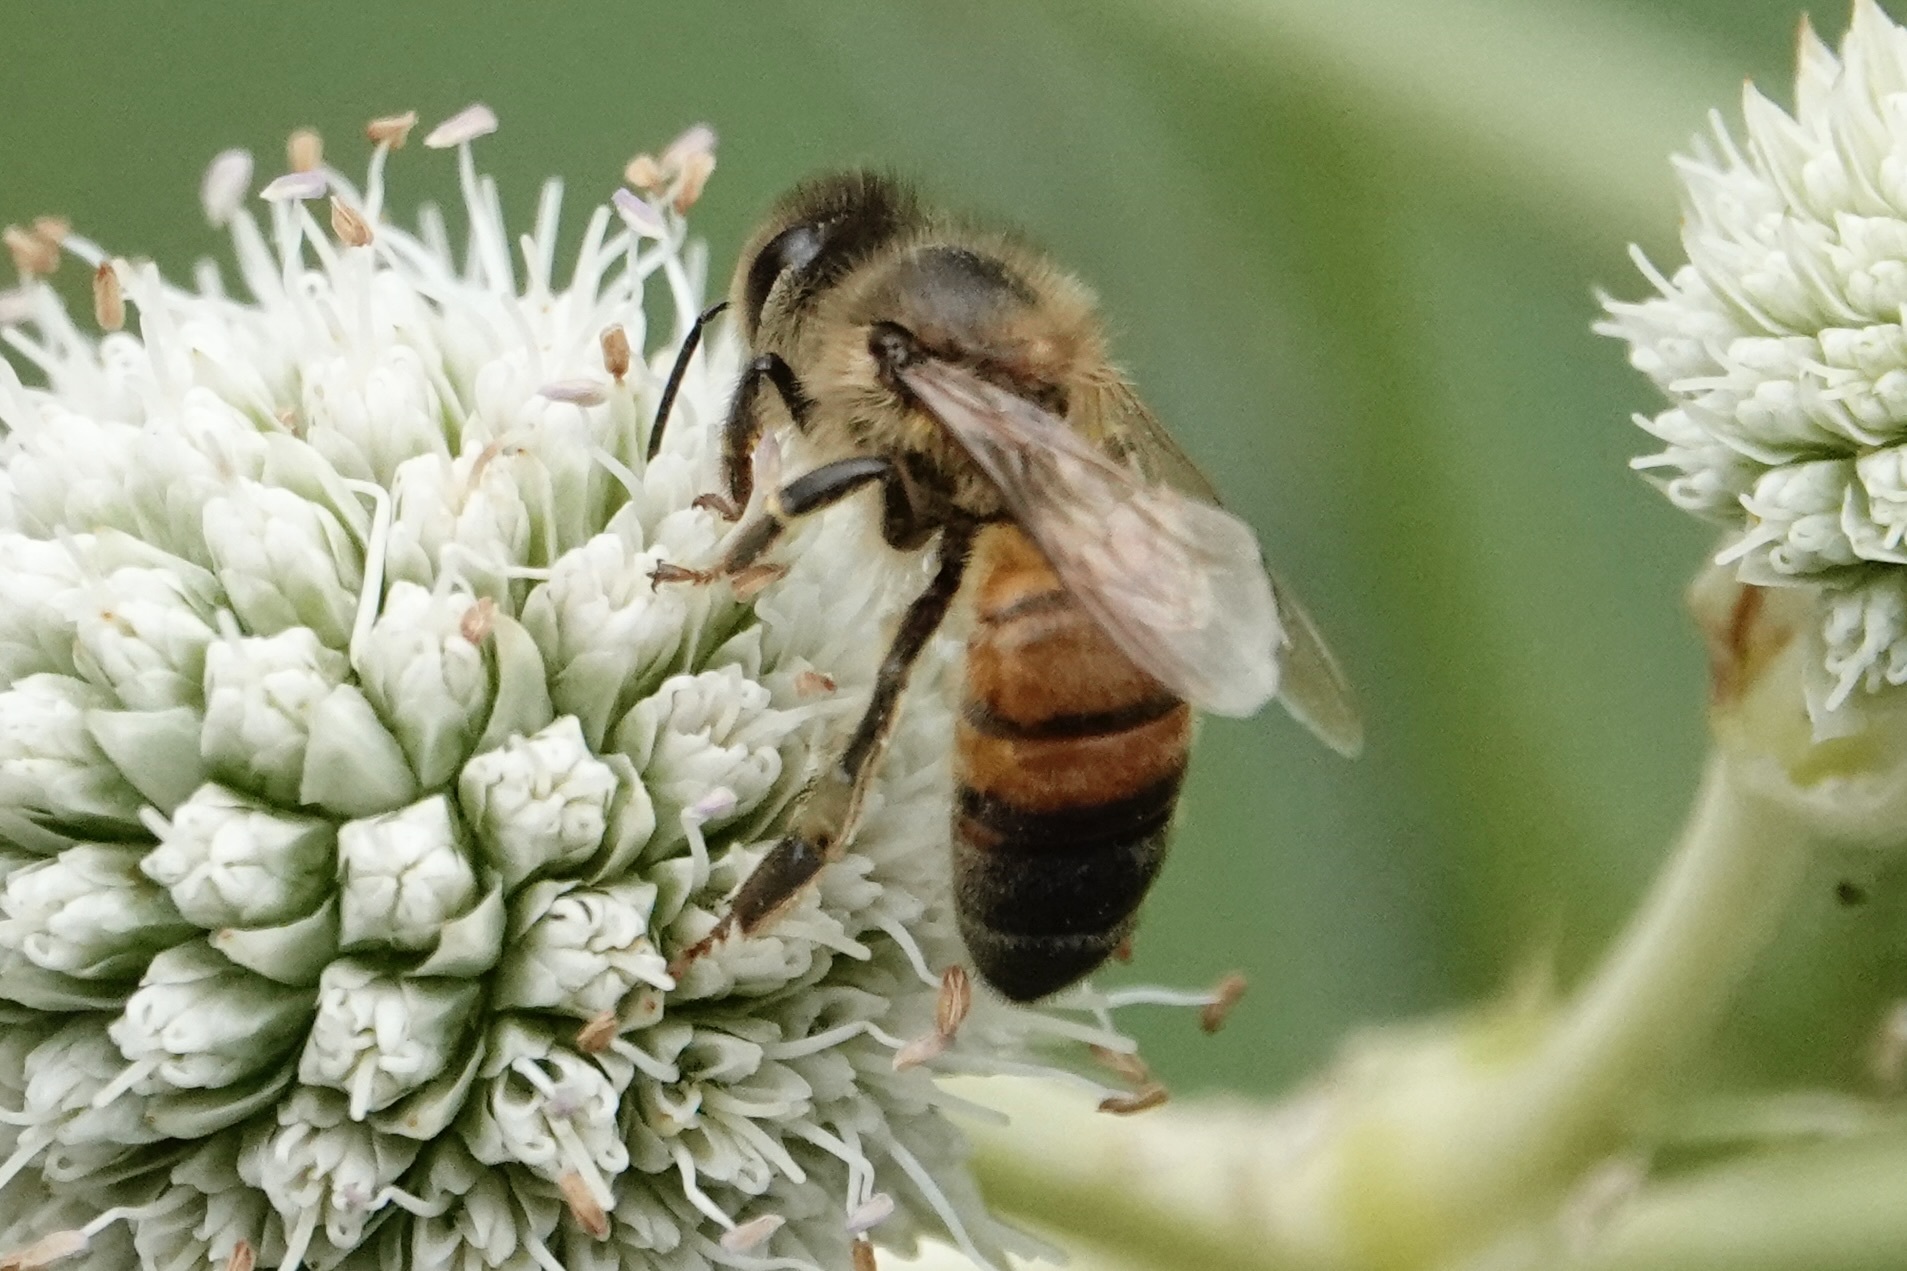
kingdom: Animalia
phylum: Arthropoda
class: Insecta
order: Hymenoptera
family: Apidae
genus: Apis
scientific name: Apis mellifera
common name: Honey bee
